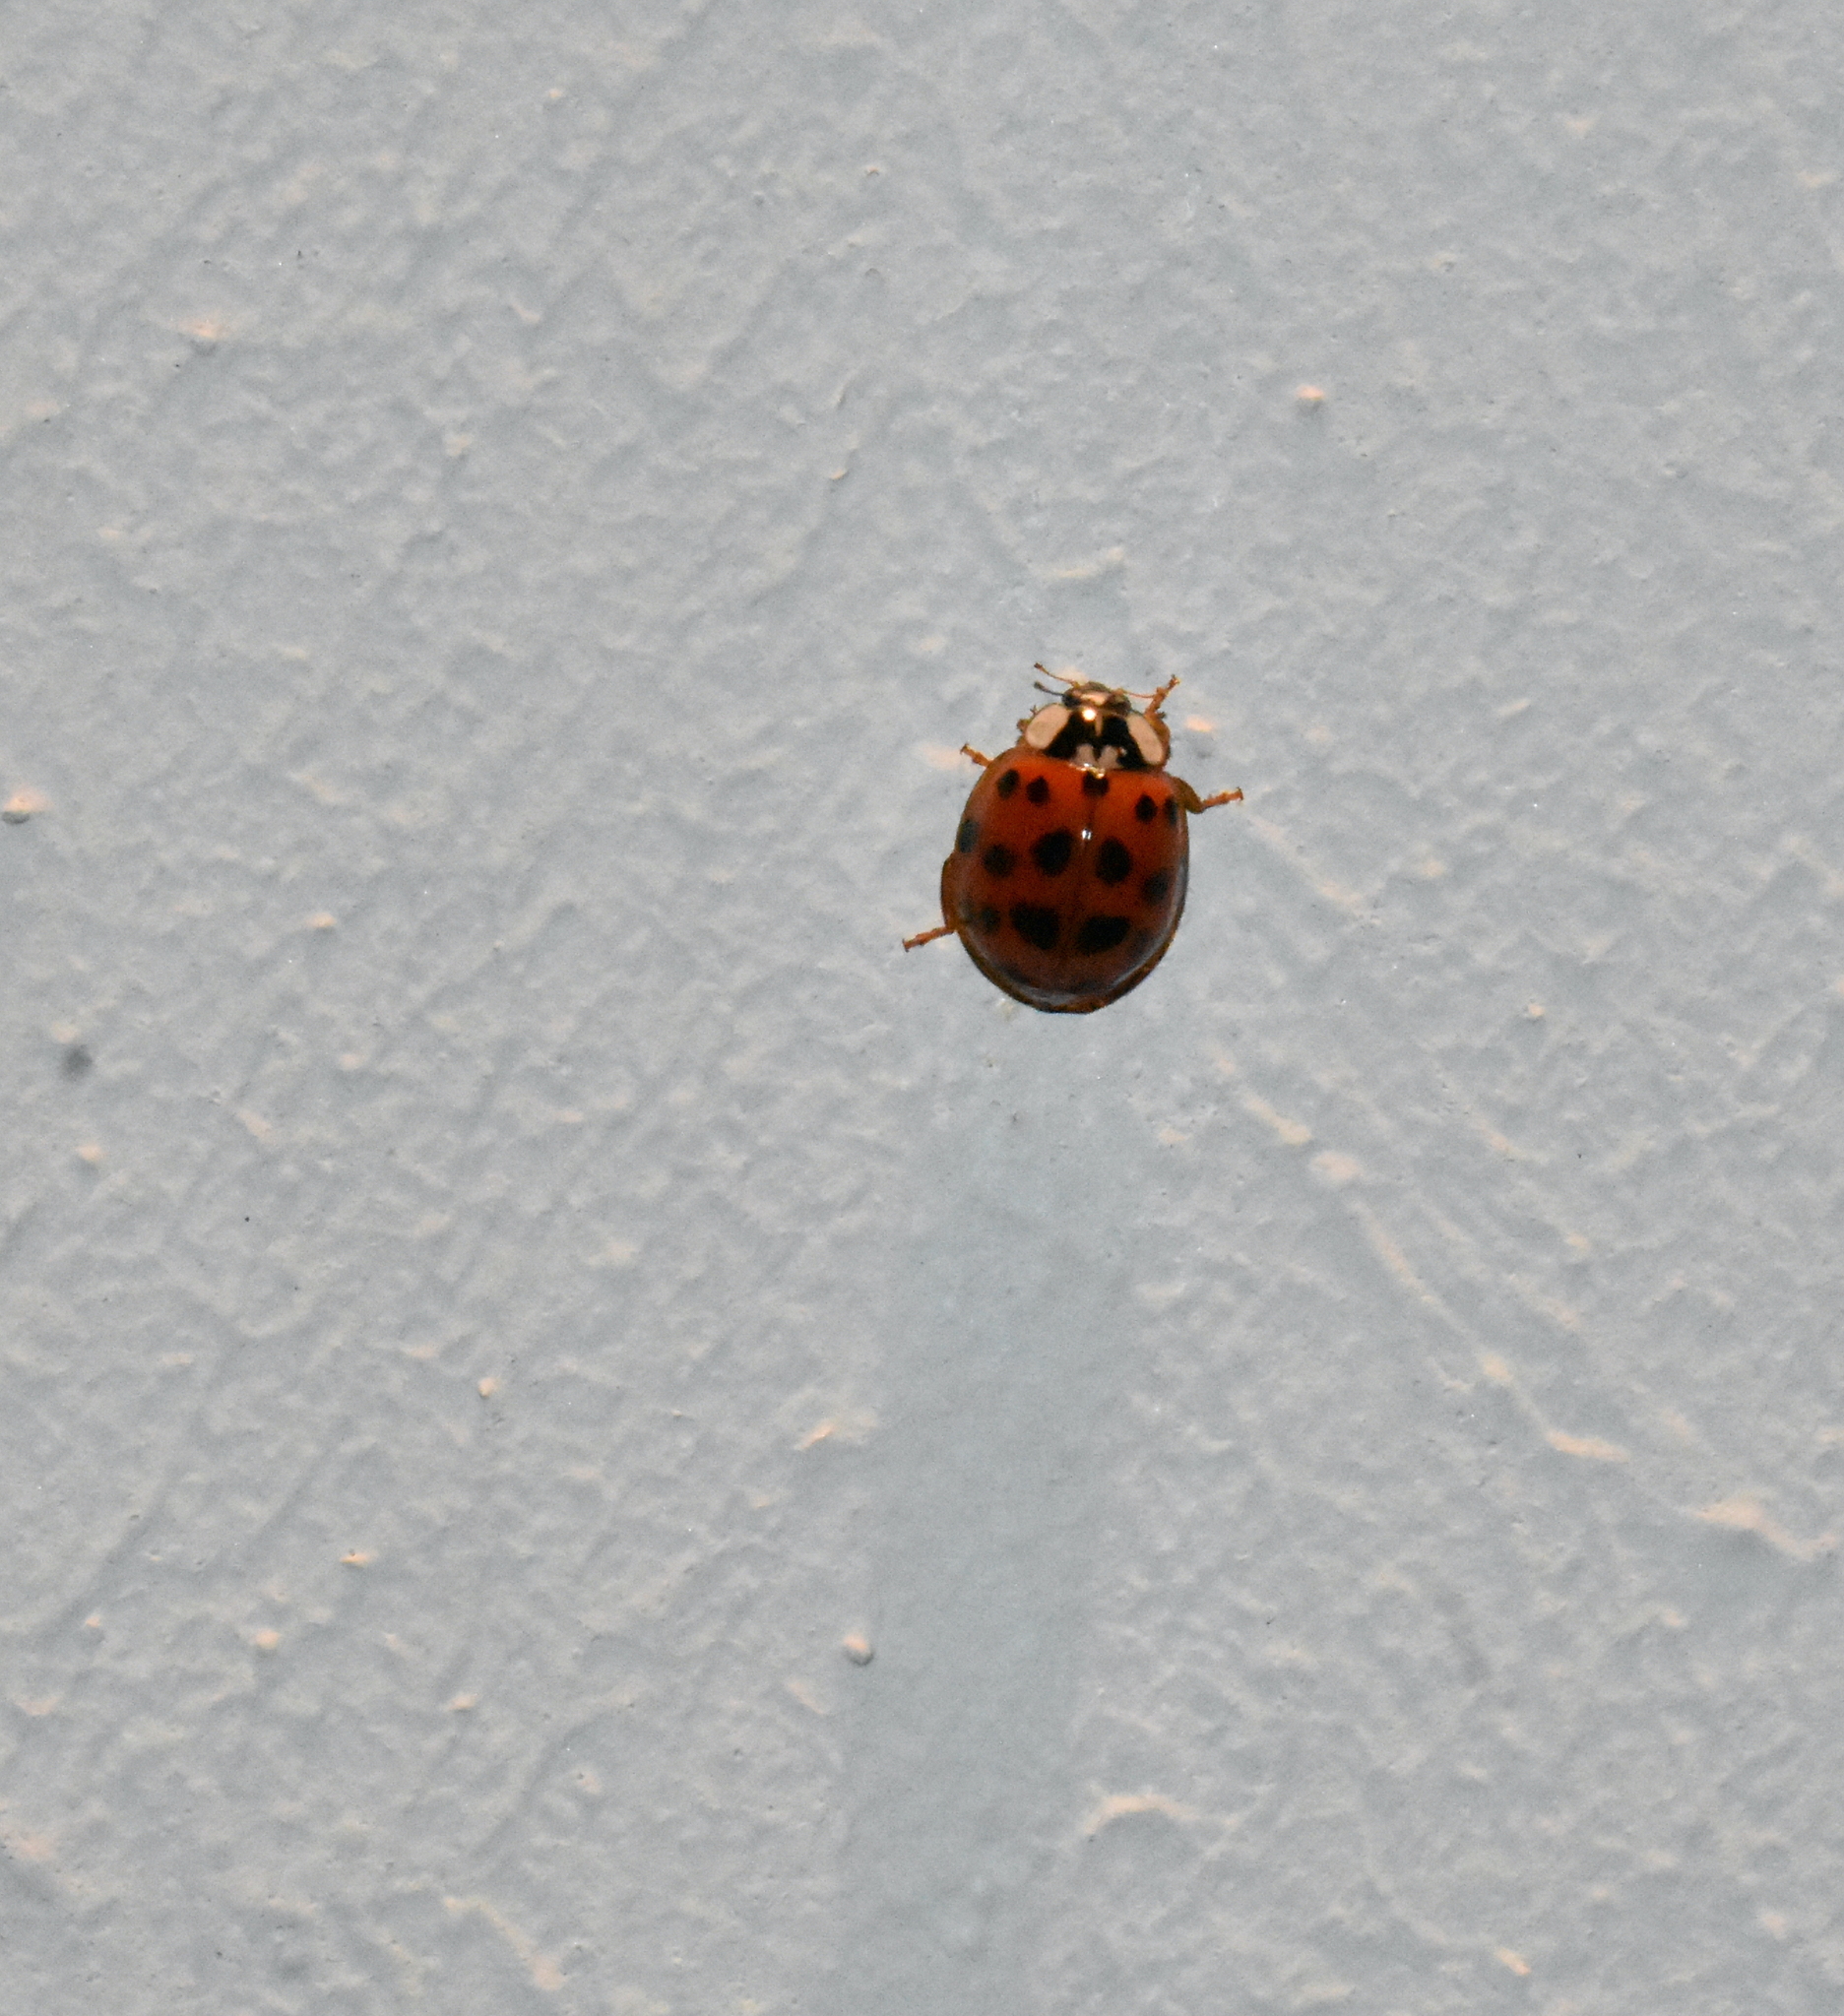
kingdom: Animalia
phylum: Arthropoda
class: Insecta
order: Coleoptera
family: Coccinellidae
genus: Harmonia
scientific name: Harmonia axyridis
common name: Harlequin ladybird
